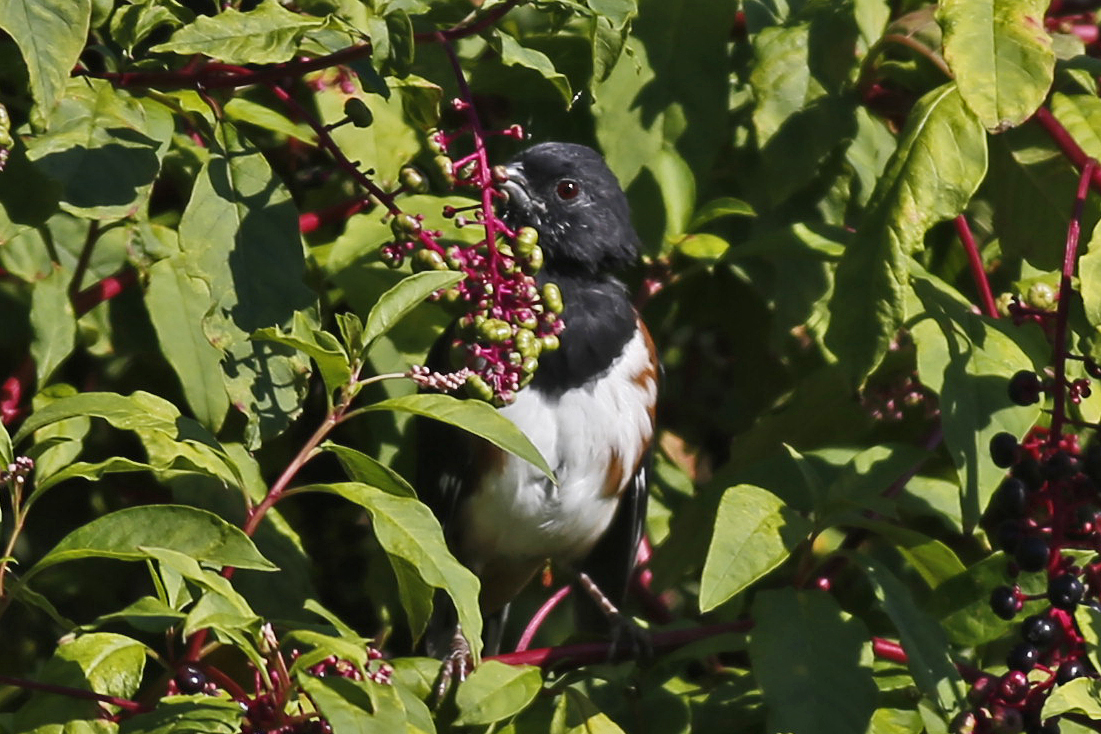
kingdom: Animalia
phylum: Chordata
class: Aves
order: Passeriformes
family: Passerellidae
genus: Pipilo
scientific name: Pipilo erythrophthalmus
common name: Eastern towhee
